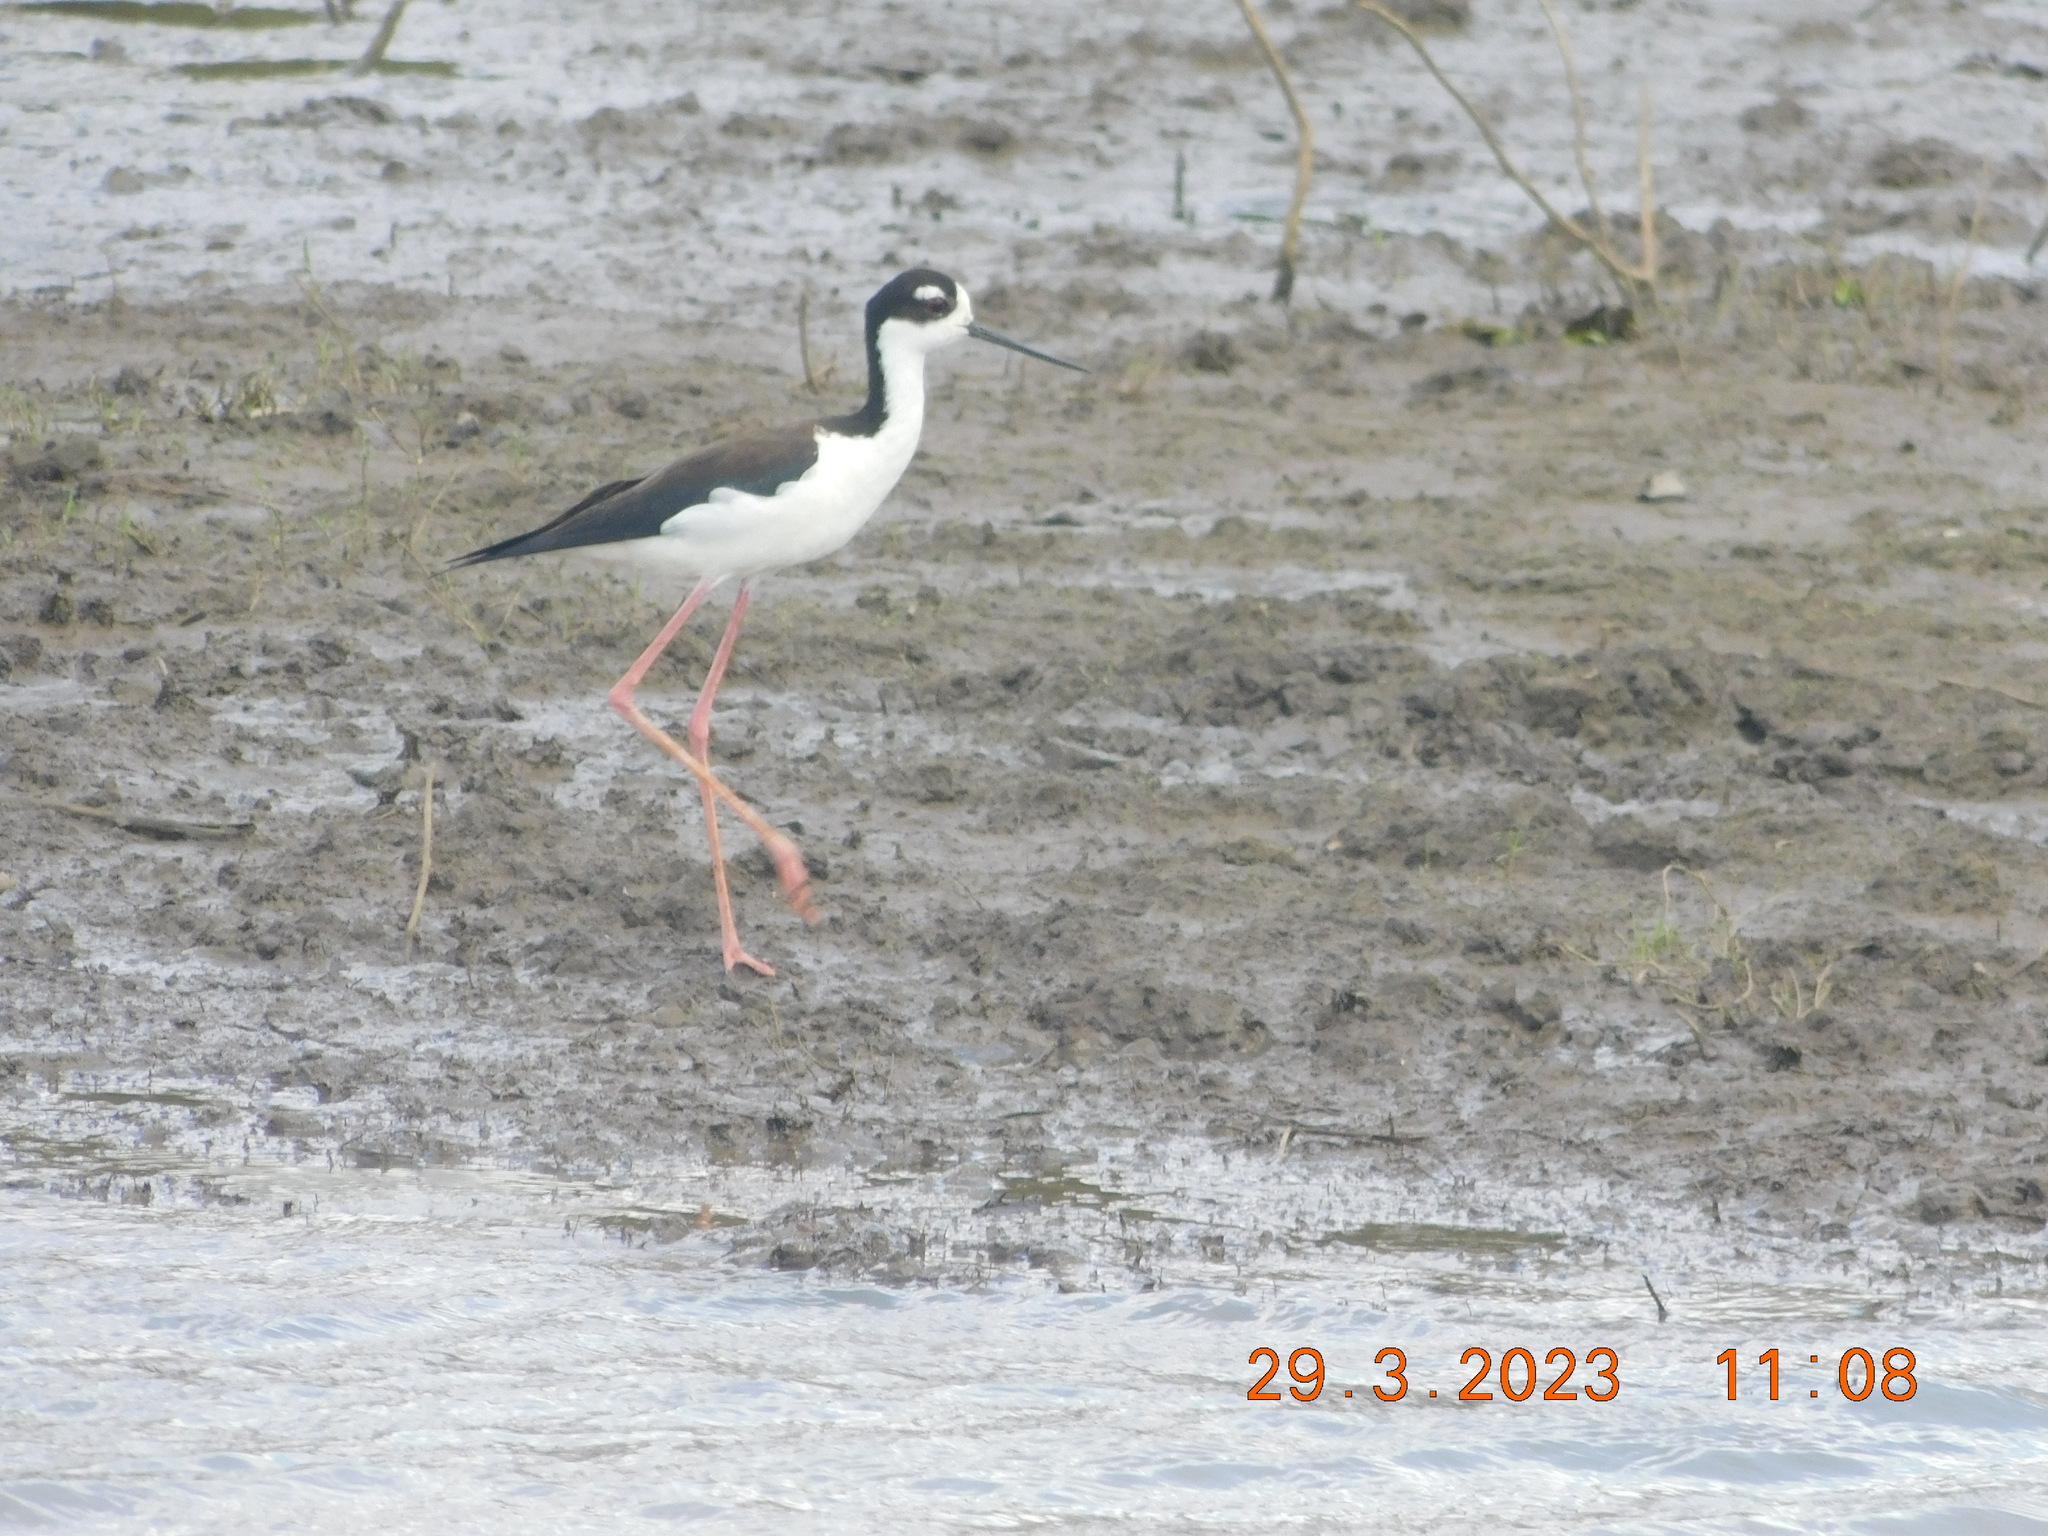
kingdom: Animalia
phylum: Chordata
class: Aves
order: Charadriiformes
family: Recurvirostridae
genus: Himantopus
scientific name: Himantopus mexicanus
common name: Black-necked stilt
